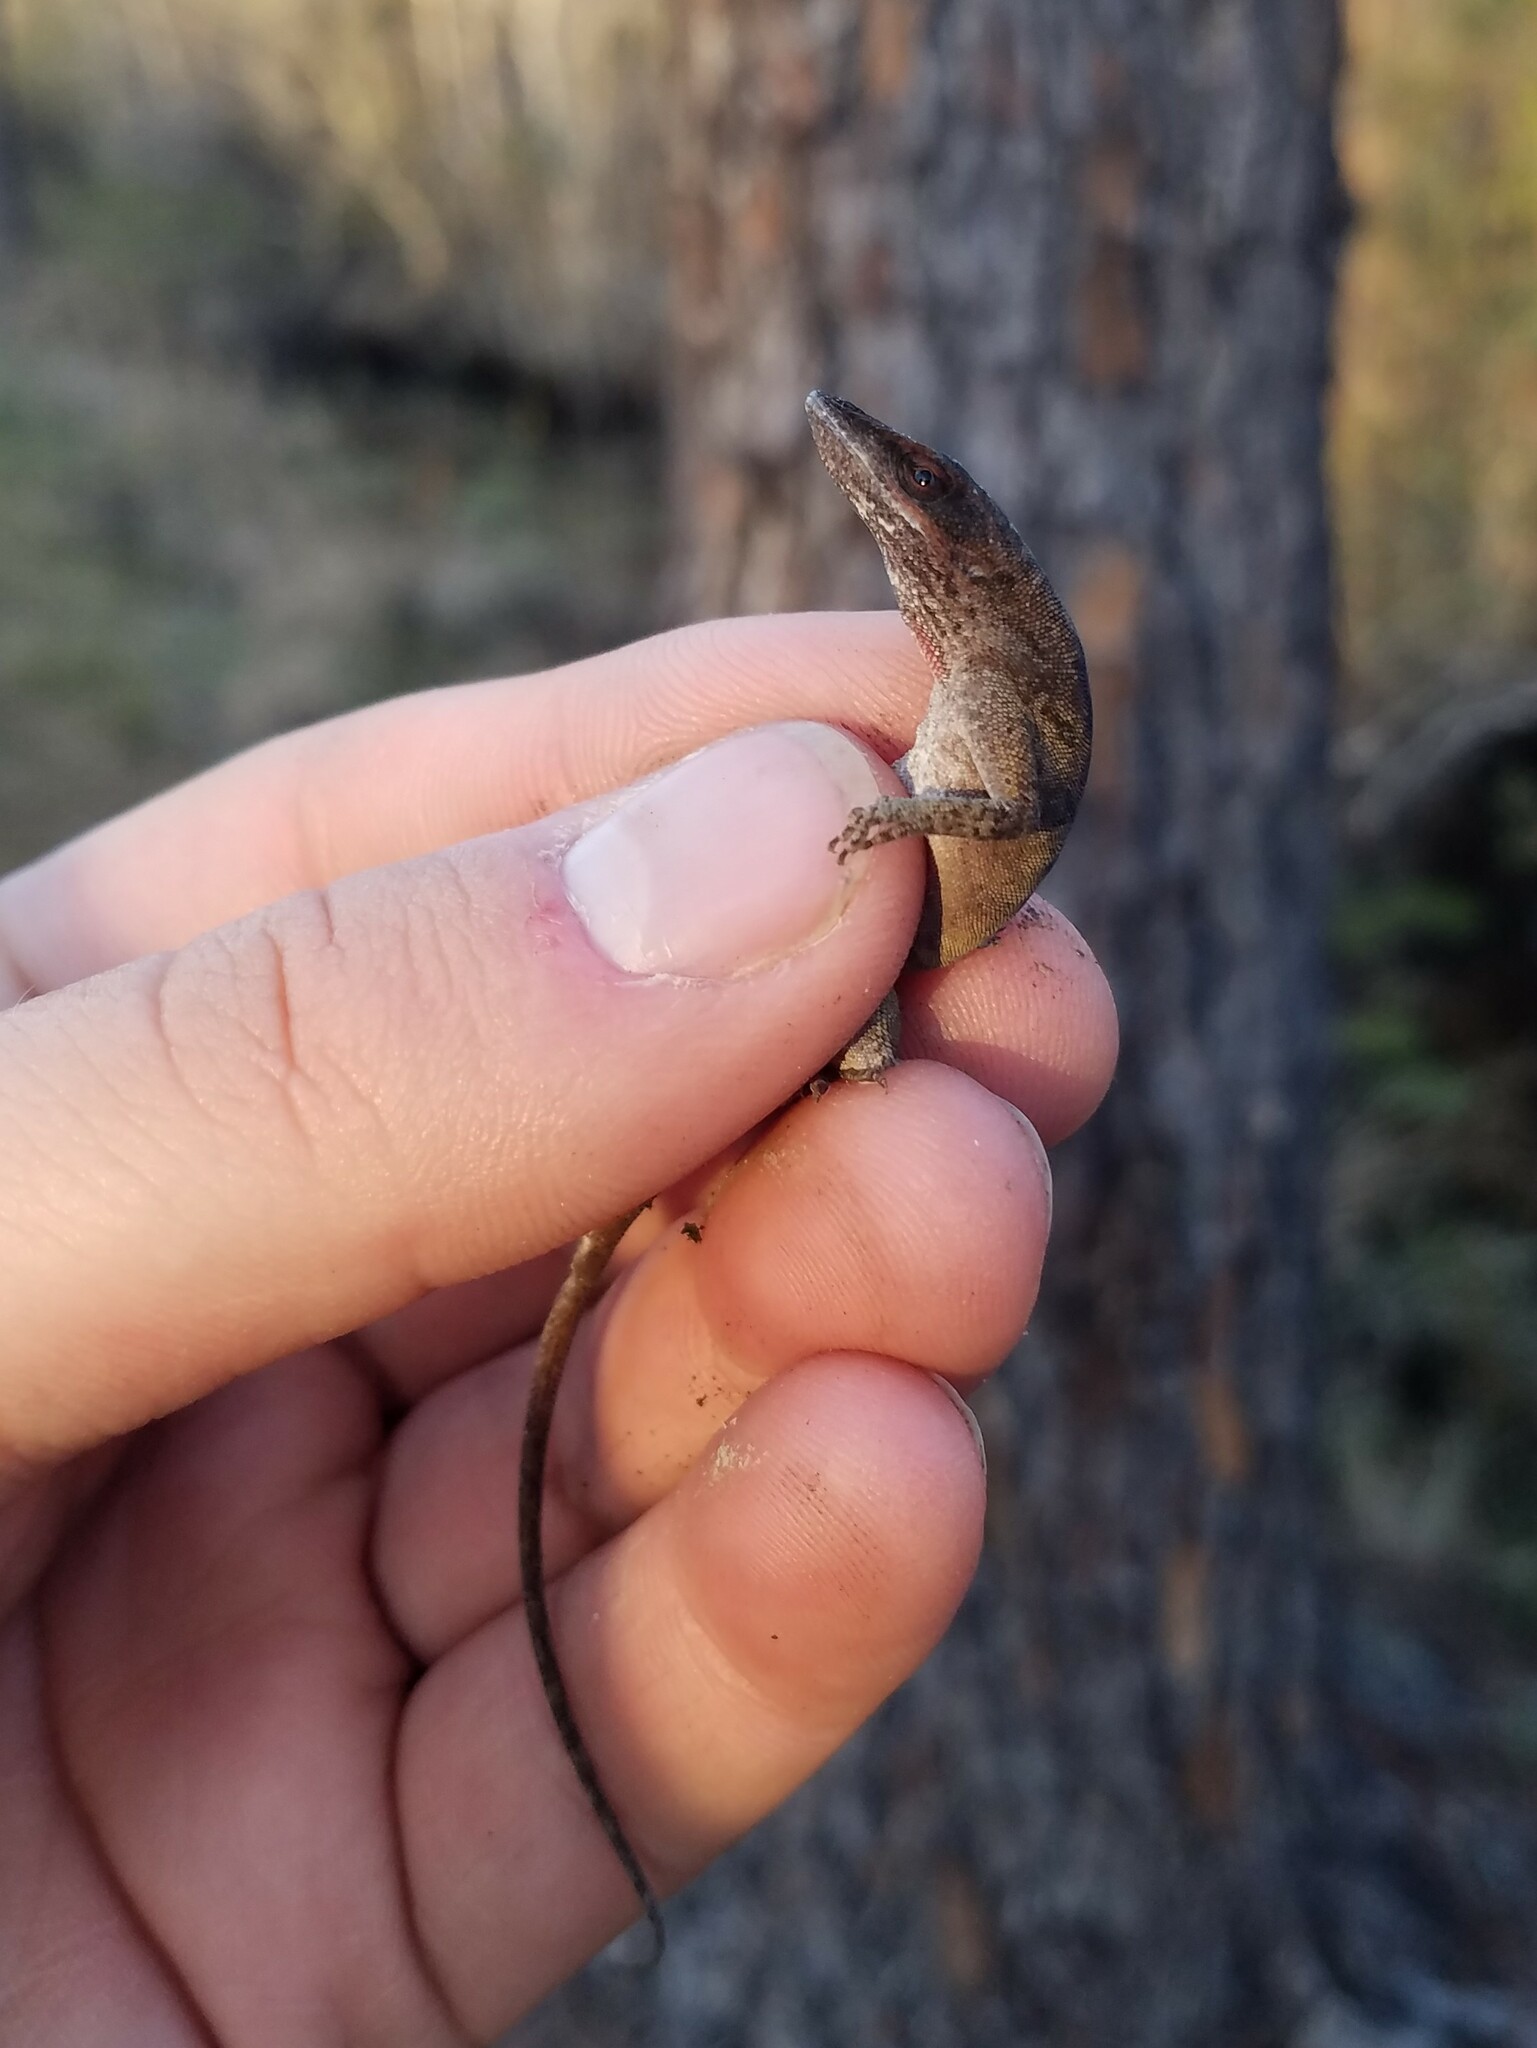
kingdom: Animalia
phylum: Chordata
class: Squamata
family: Dactyloidae
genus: Anolis
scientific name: Anolis carolinensis
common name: Green anole
